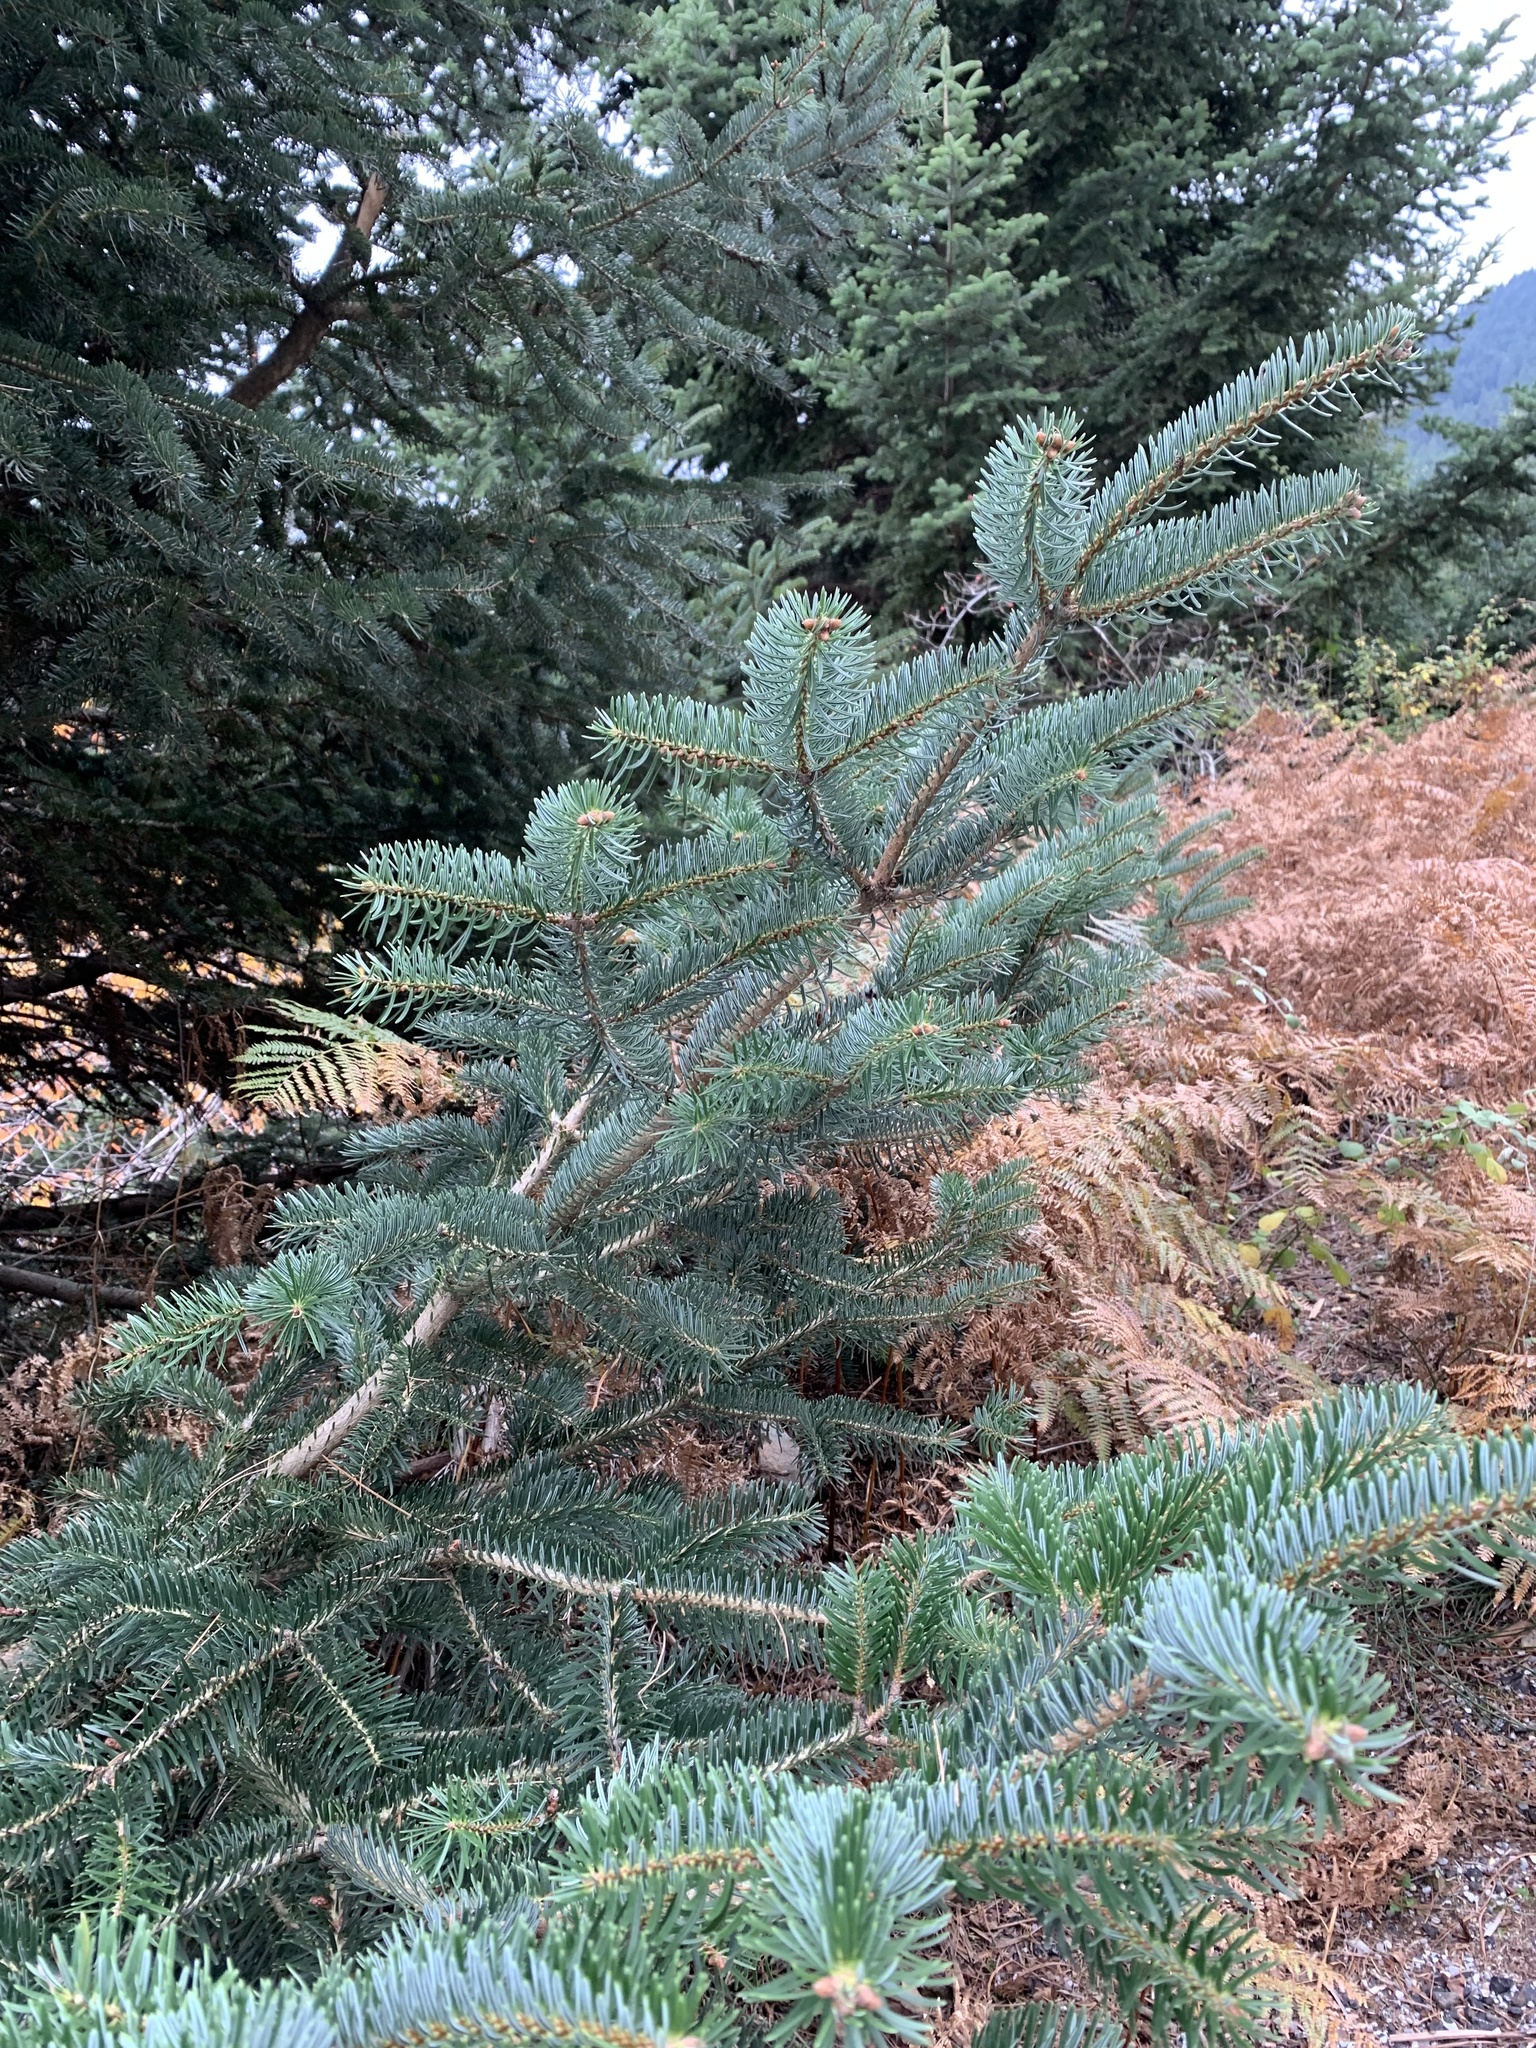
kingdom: Plantae
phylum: Tracheophyta
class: Pinopsida
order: Pinales
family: Pinaceae
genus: Abies
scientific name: Abies cephalonica
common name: Greek fir
